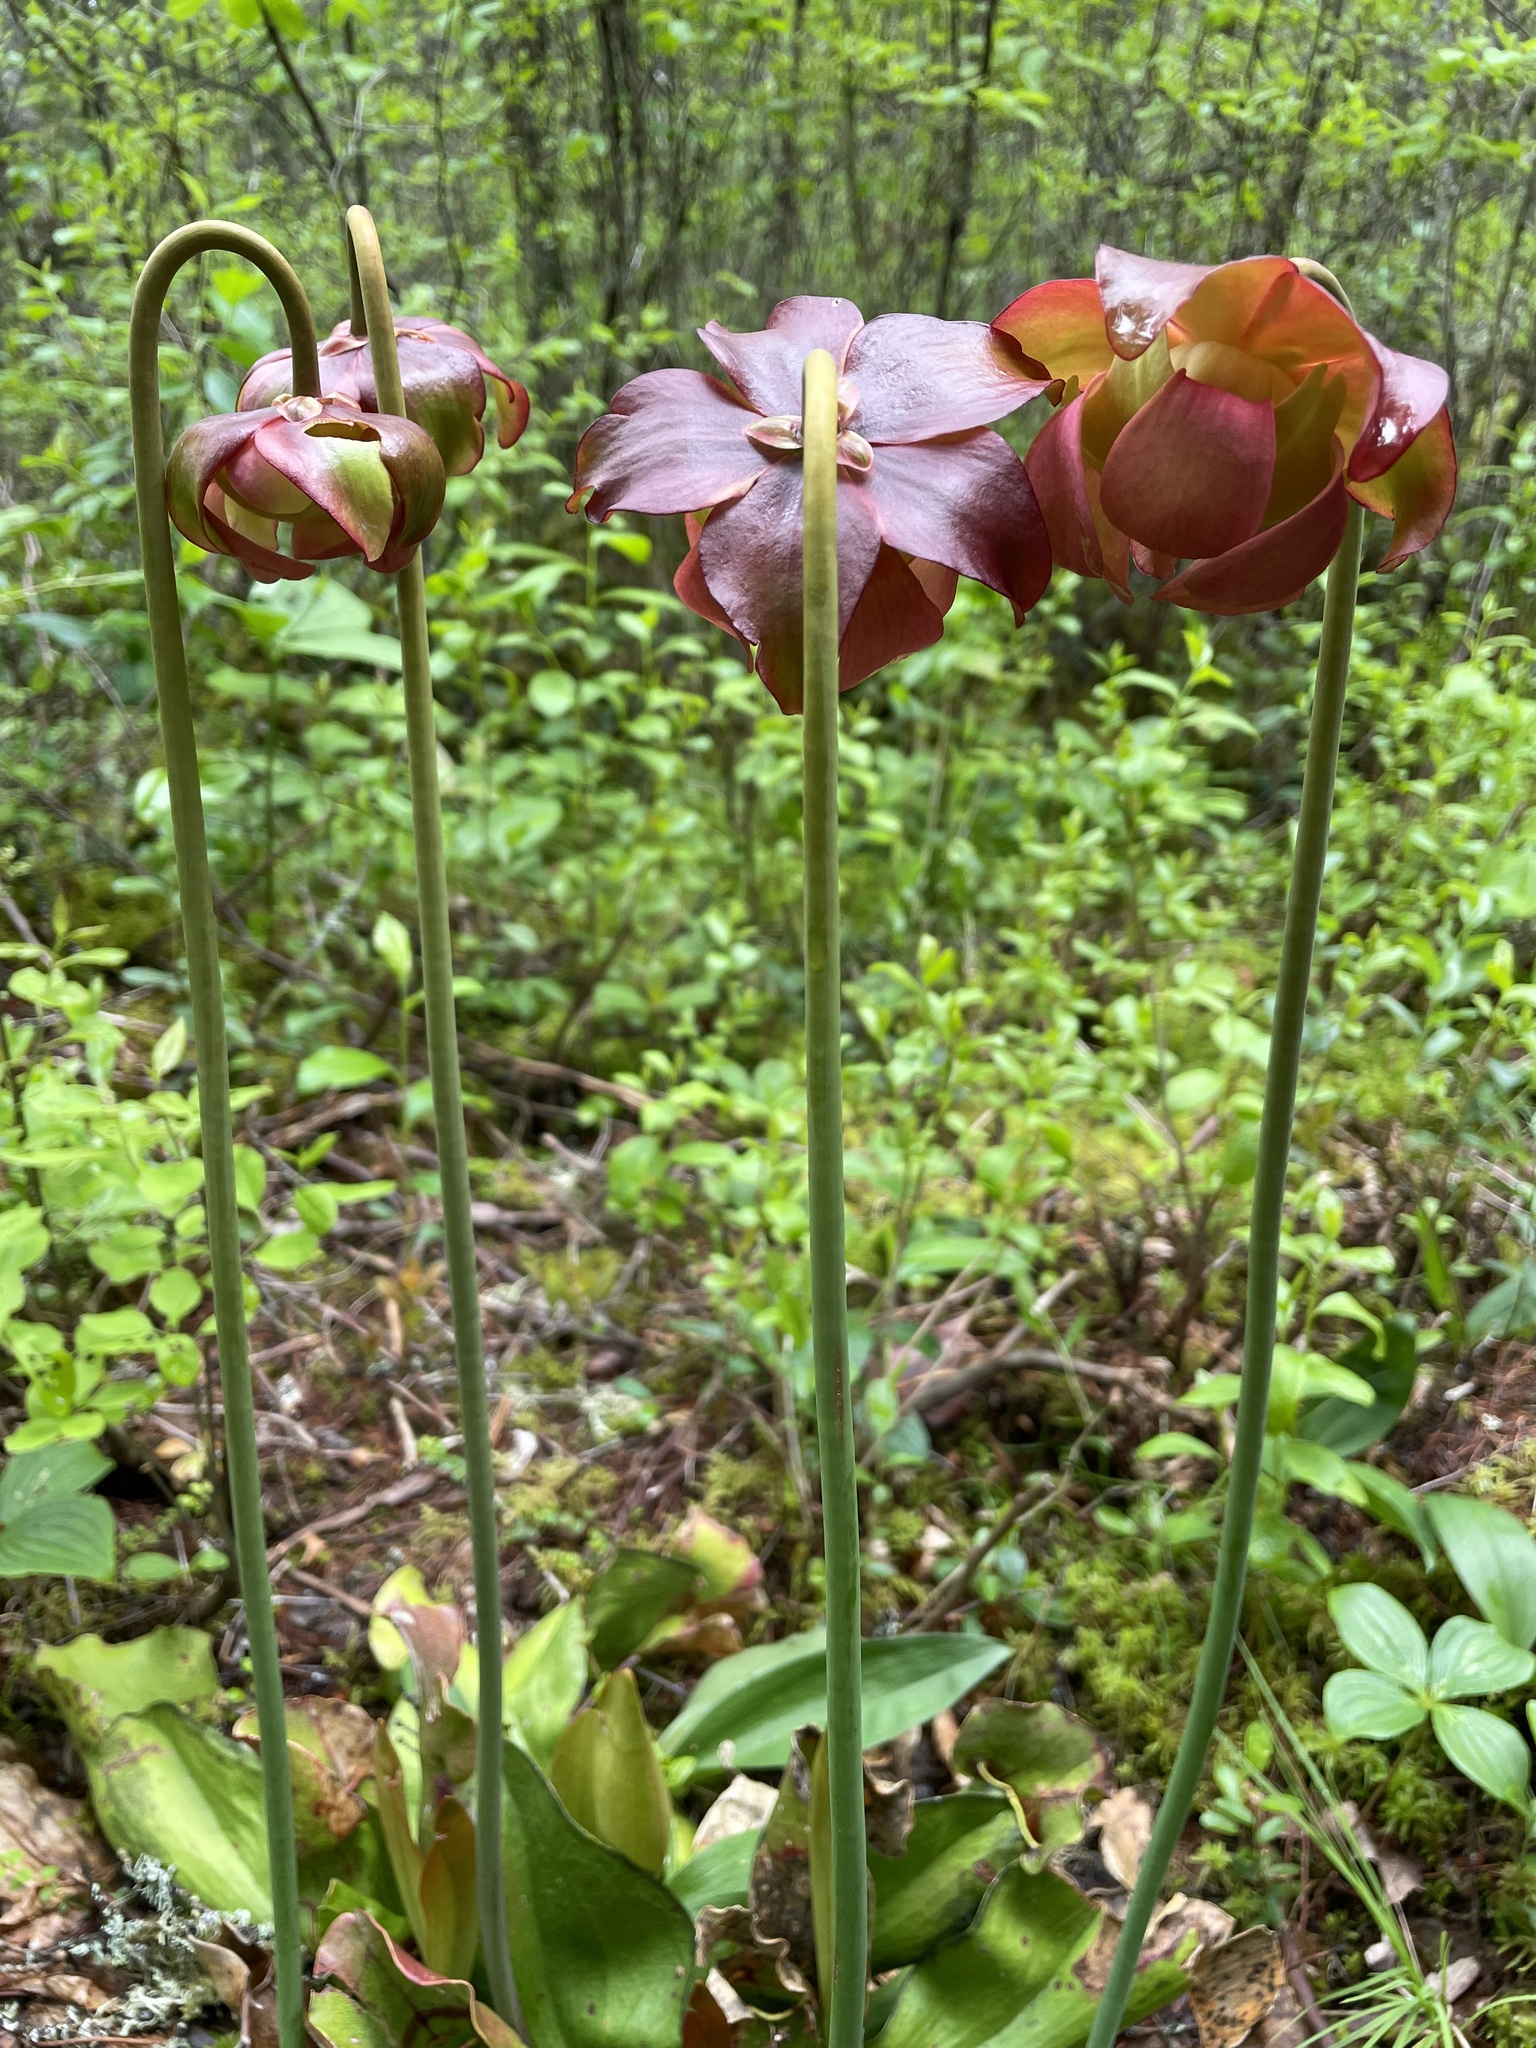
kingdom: Plantae
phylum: Tracheophyta
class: Magnoliopsida
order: Ericales
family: Sarraceniaceae
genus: Sarracenia
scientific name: Sarracenia purpurea
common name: Pitcherplant
